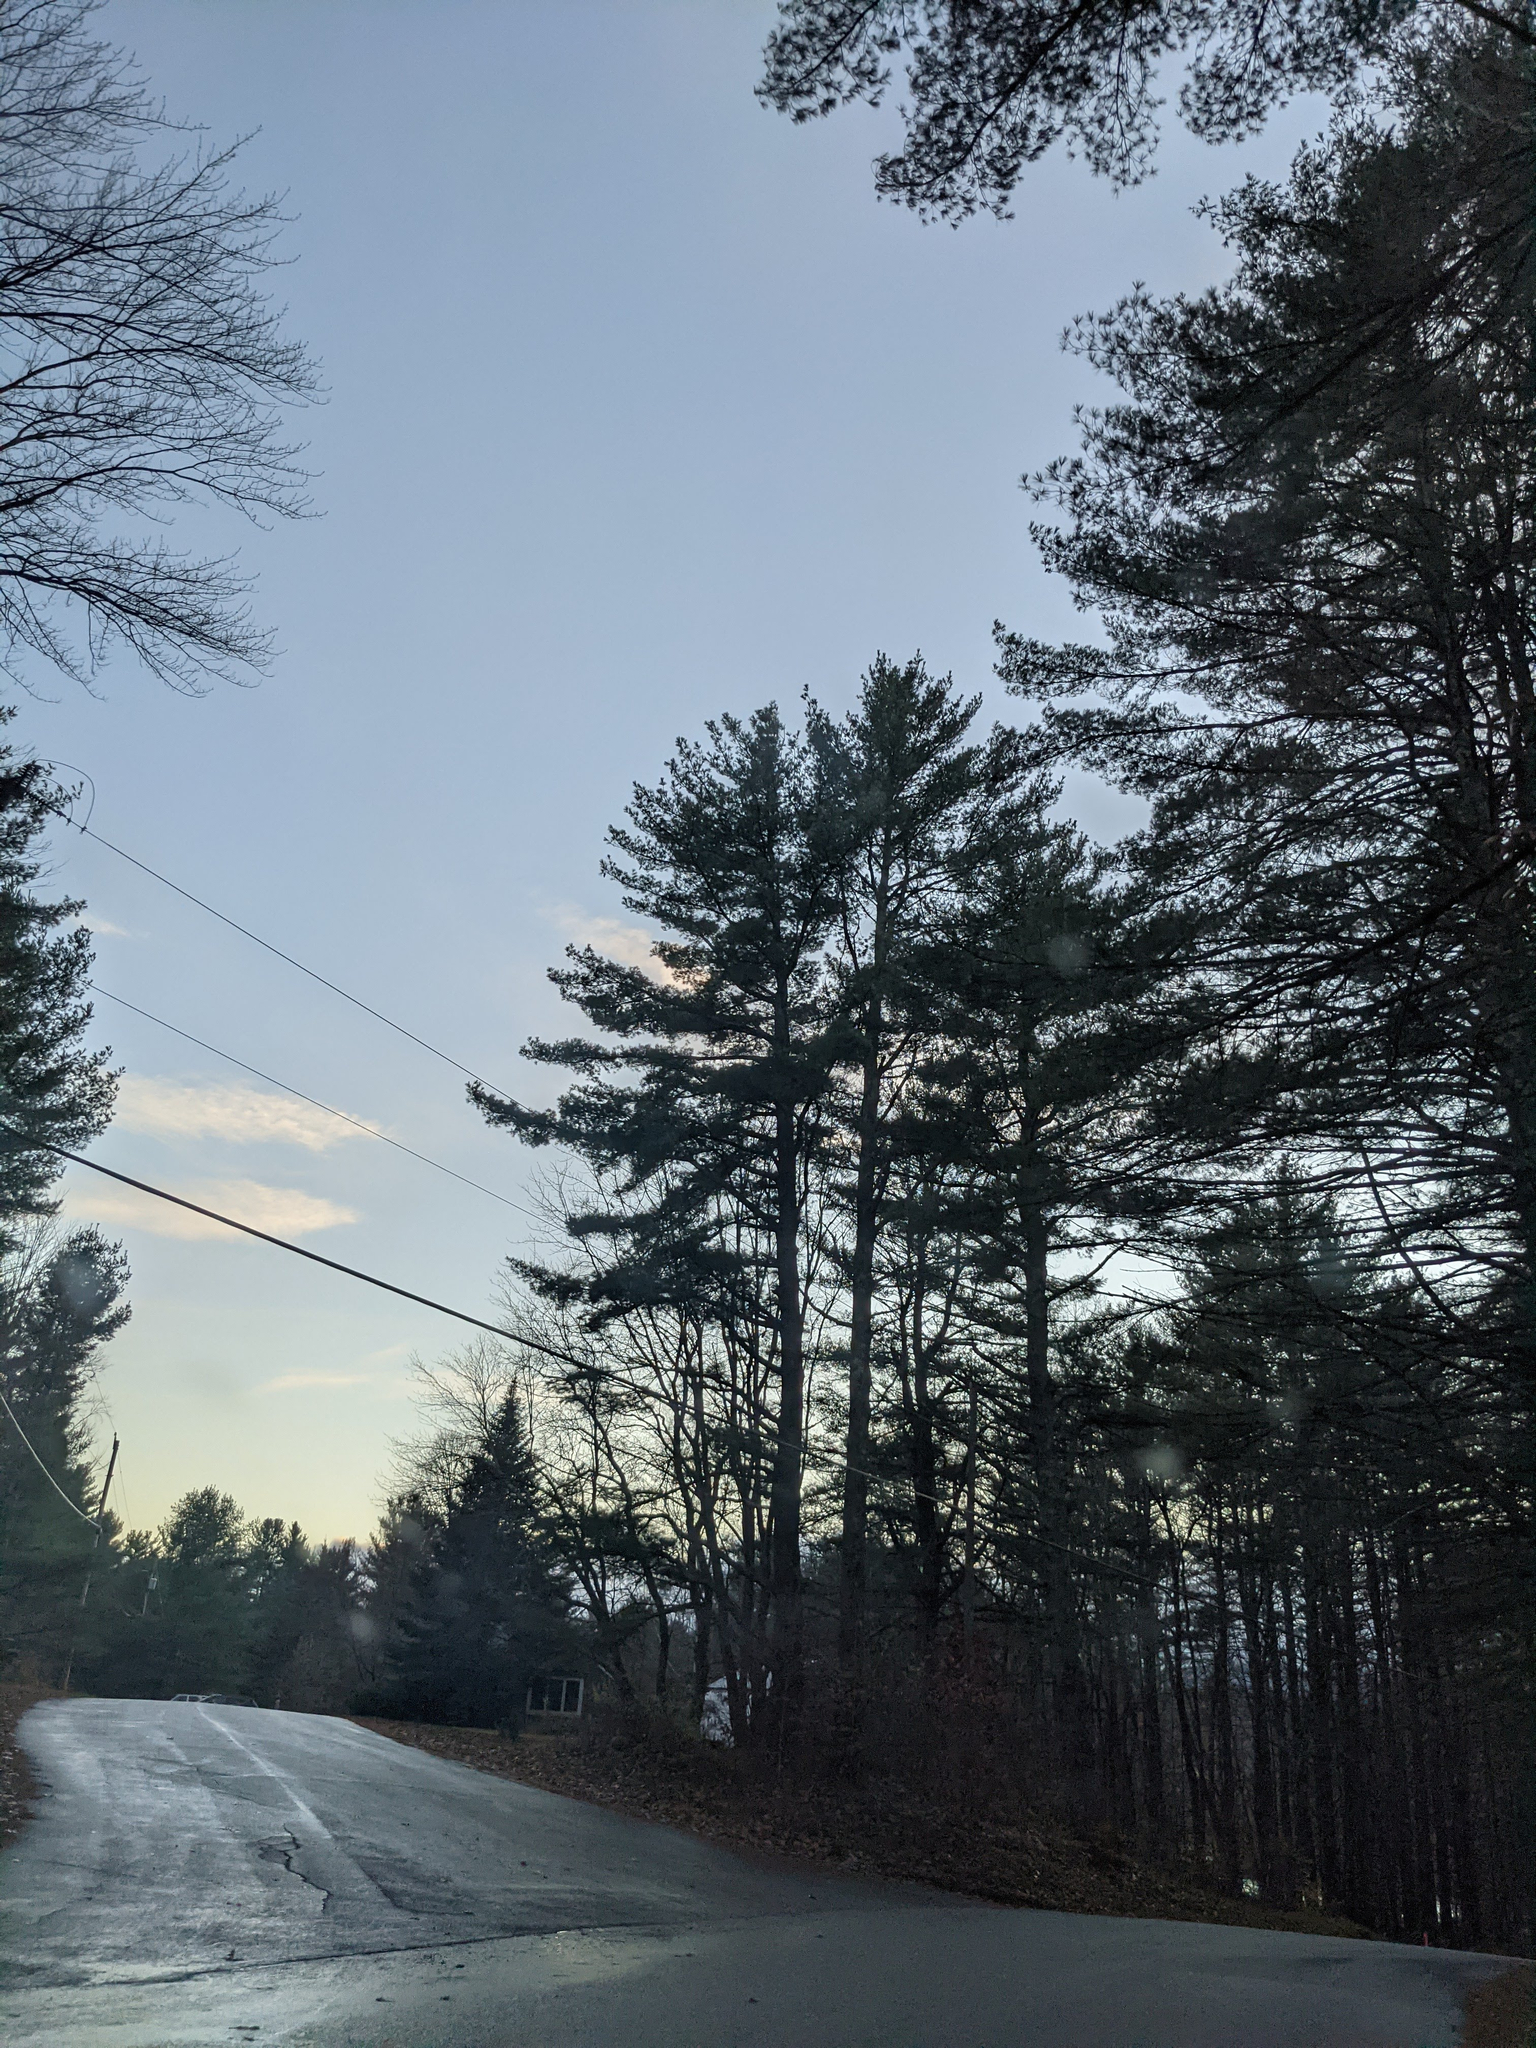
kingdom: Plantae
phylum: Tracheophyta
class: Pinopsida
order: Pinales
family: Pinaceae
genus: Pinus
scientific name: Pinus strobus
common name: Weymouth pine
